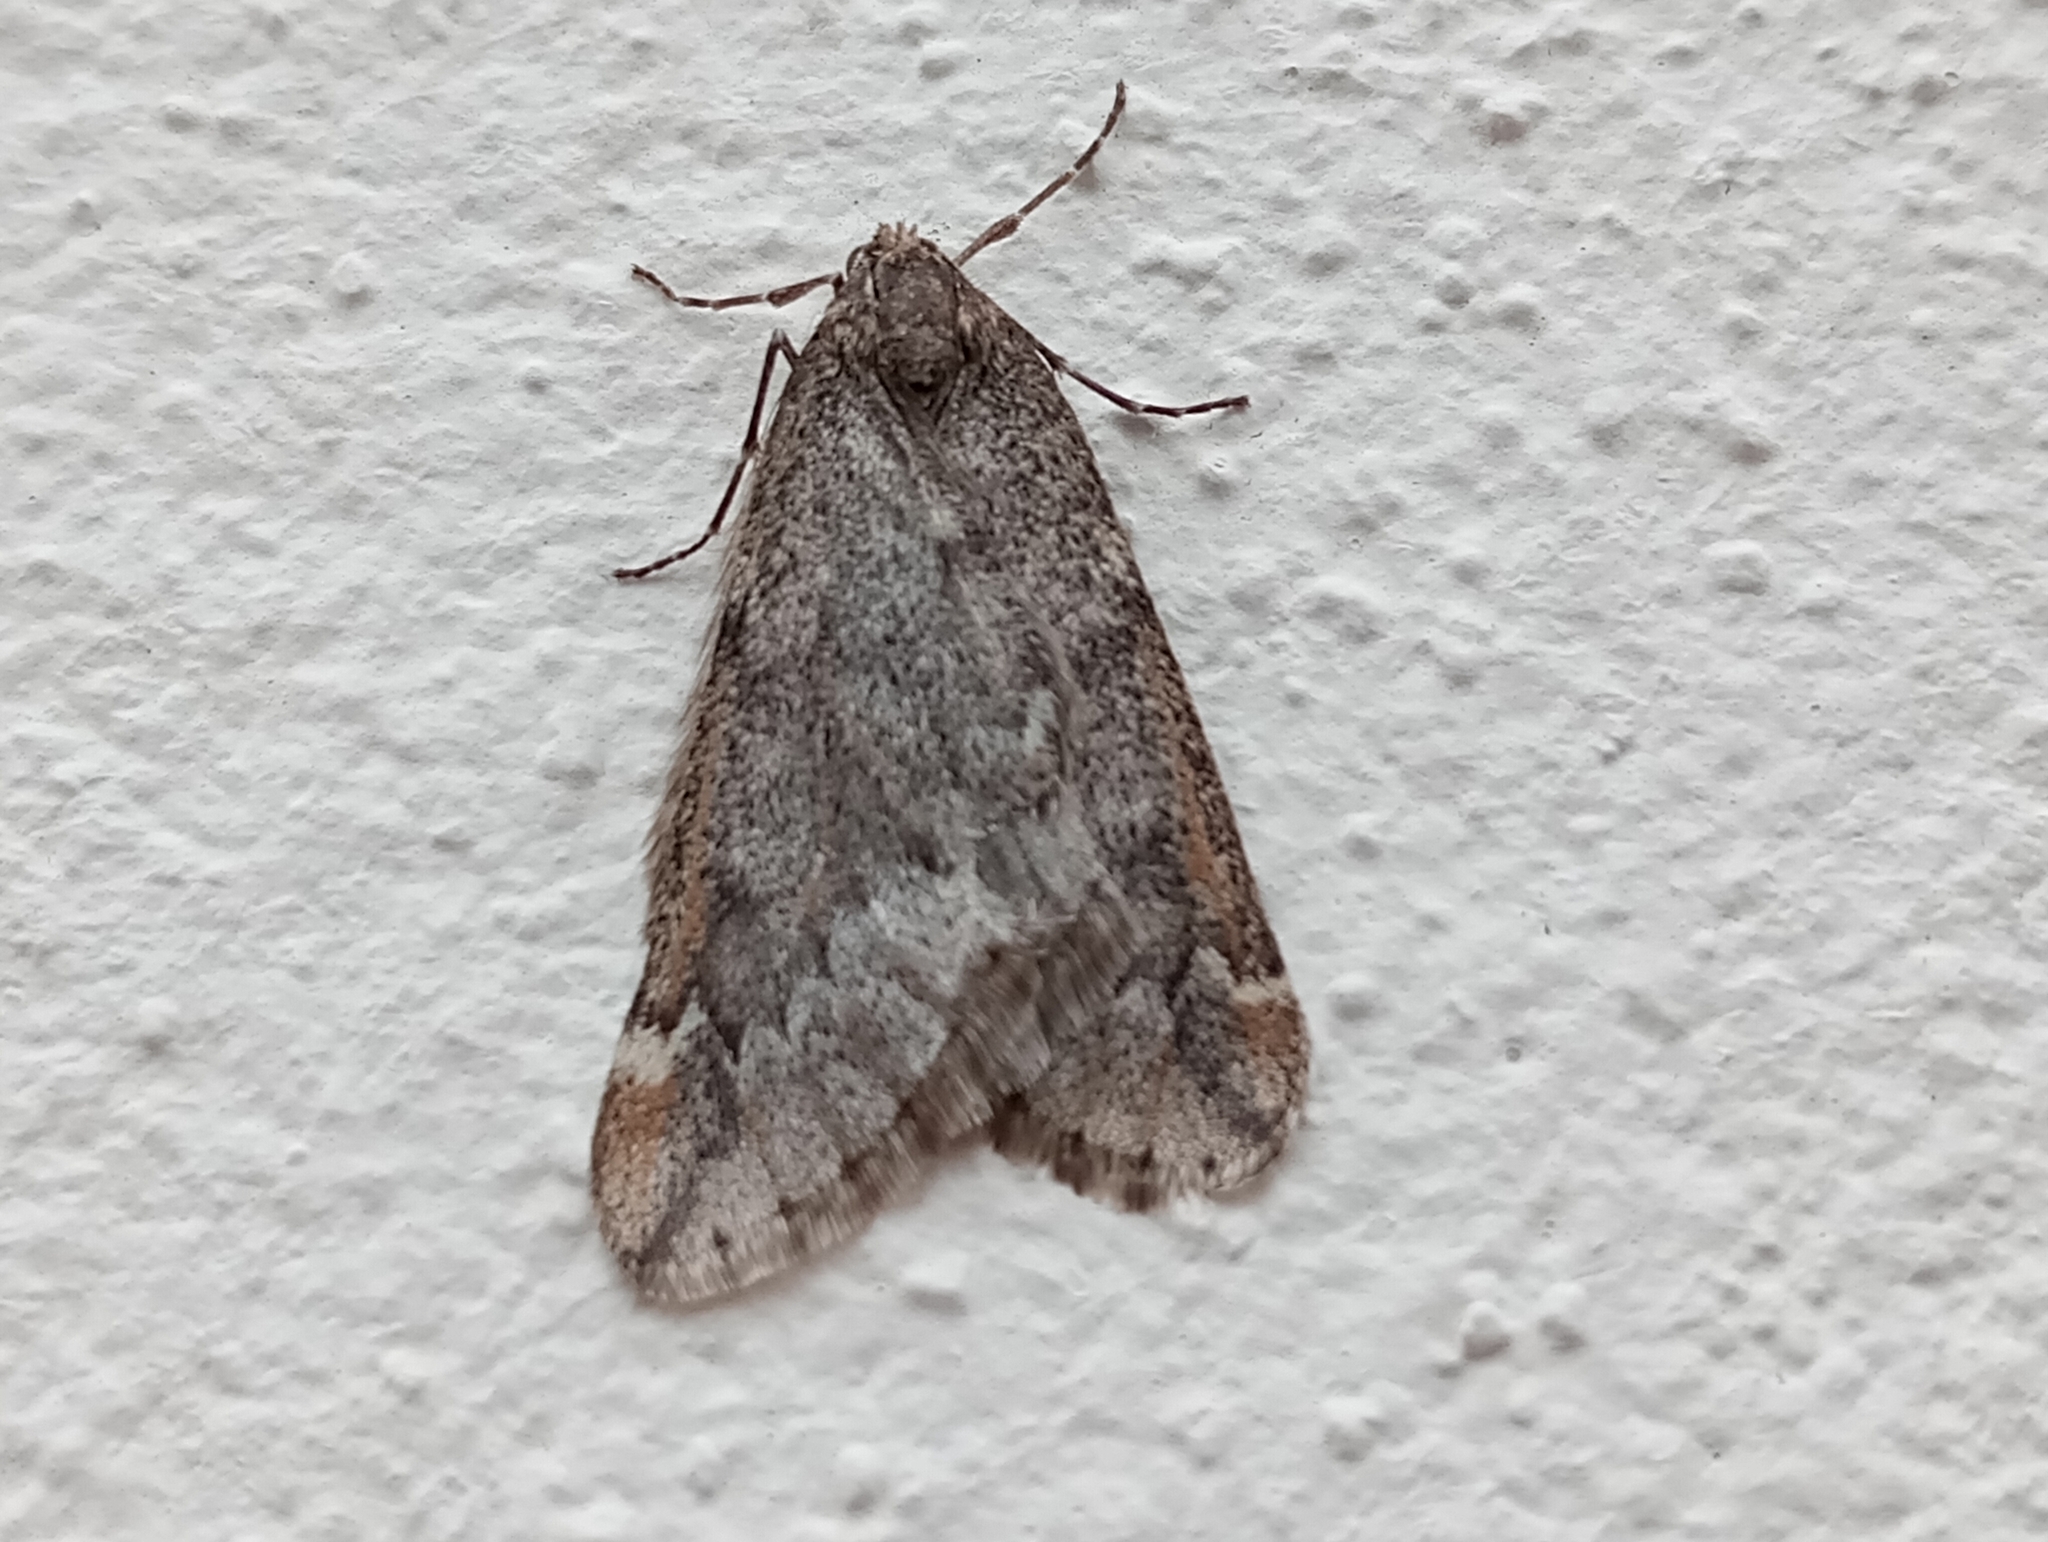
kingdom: Animalia
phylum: Arthropoda
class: Insecta
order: Lepidoptera
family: Geometridae
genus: Alsophila
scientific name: Alsophila aescularia
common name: March moth
